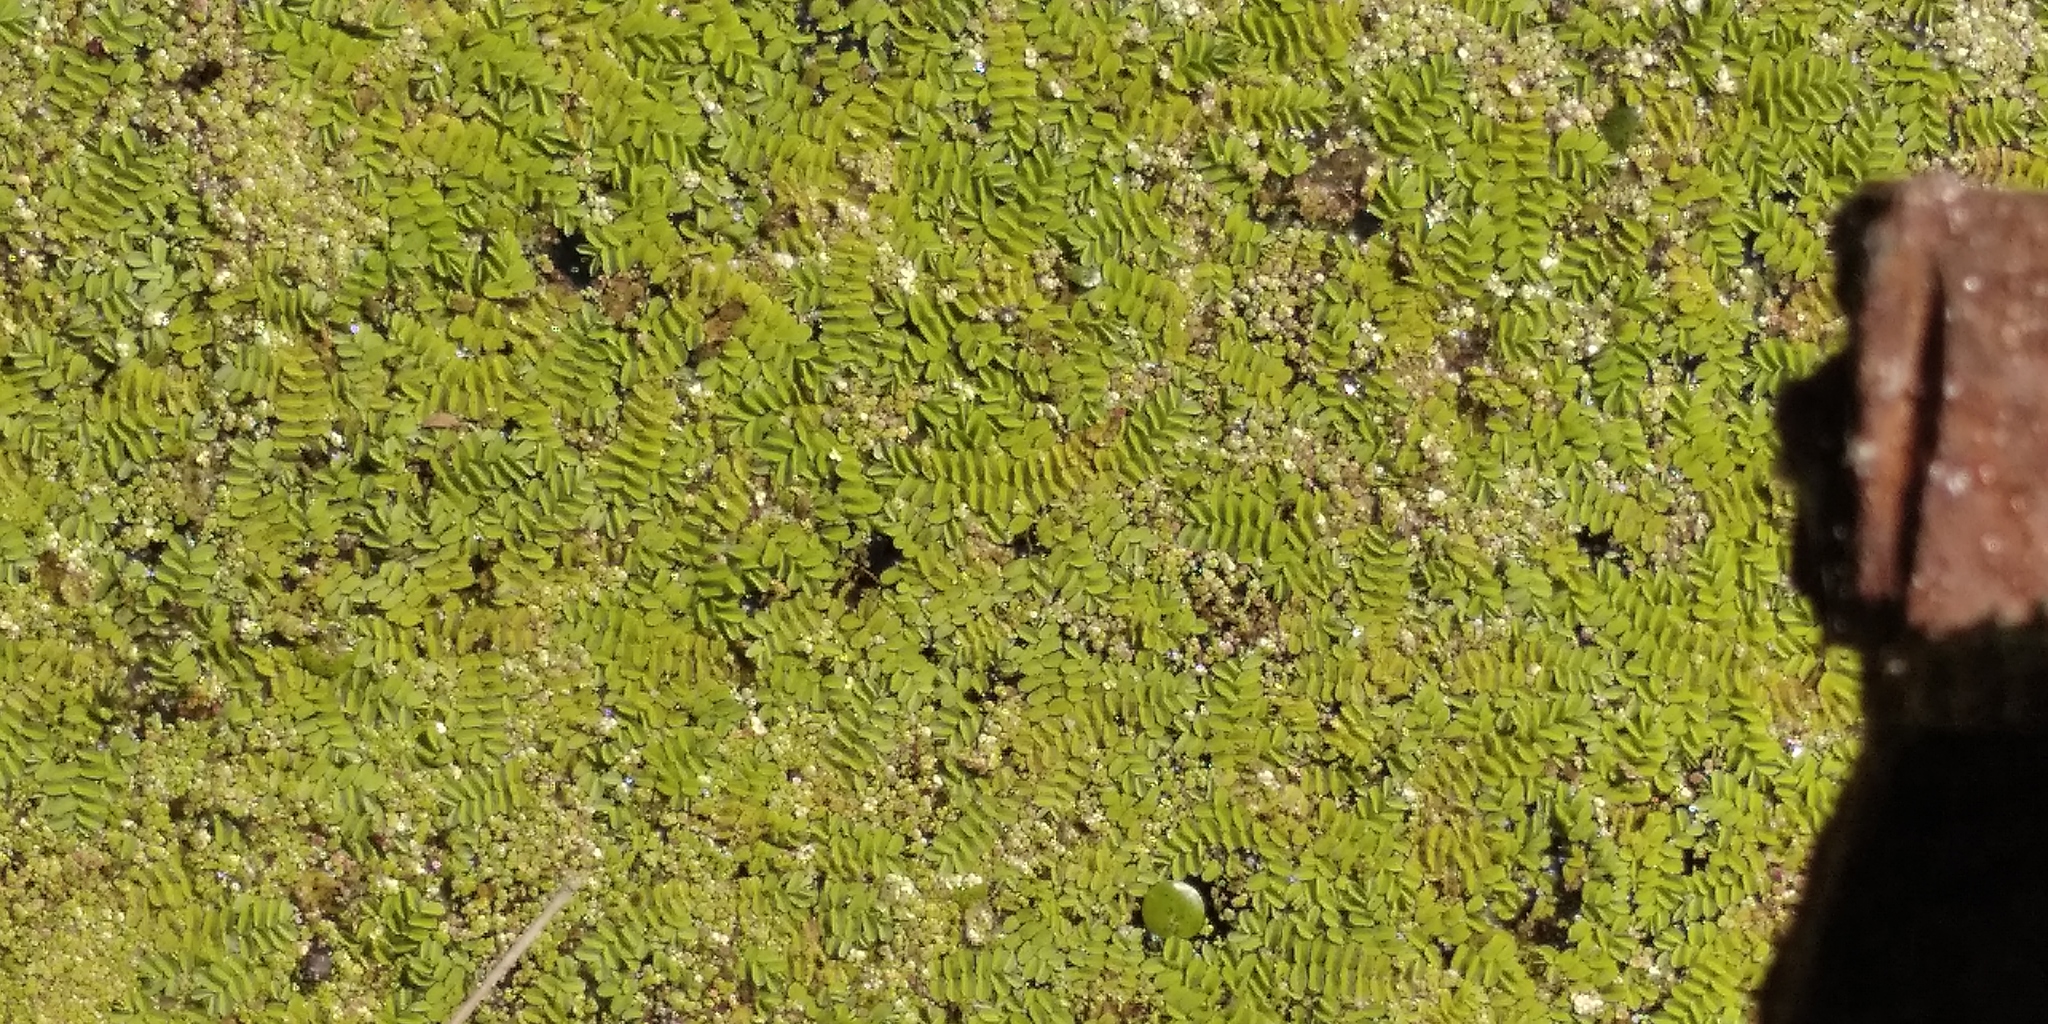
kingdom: Plantae
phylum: Tracheophyta
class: Polypodiopsida
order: Salviniales
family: Salviniaceae
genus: Salvinia
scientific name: Salvinia natans
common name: Floating fern
